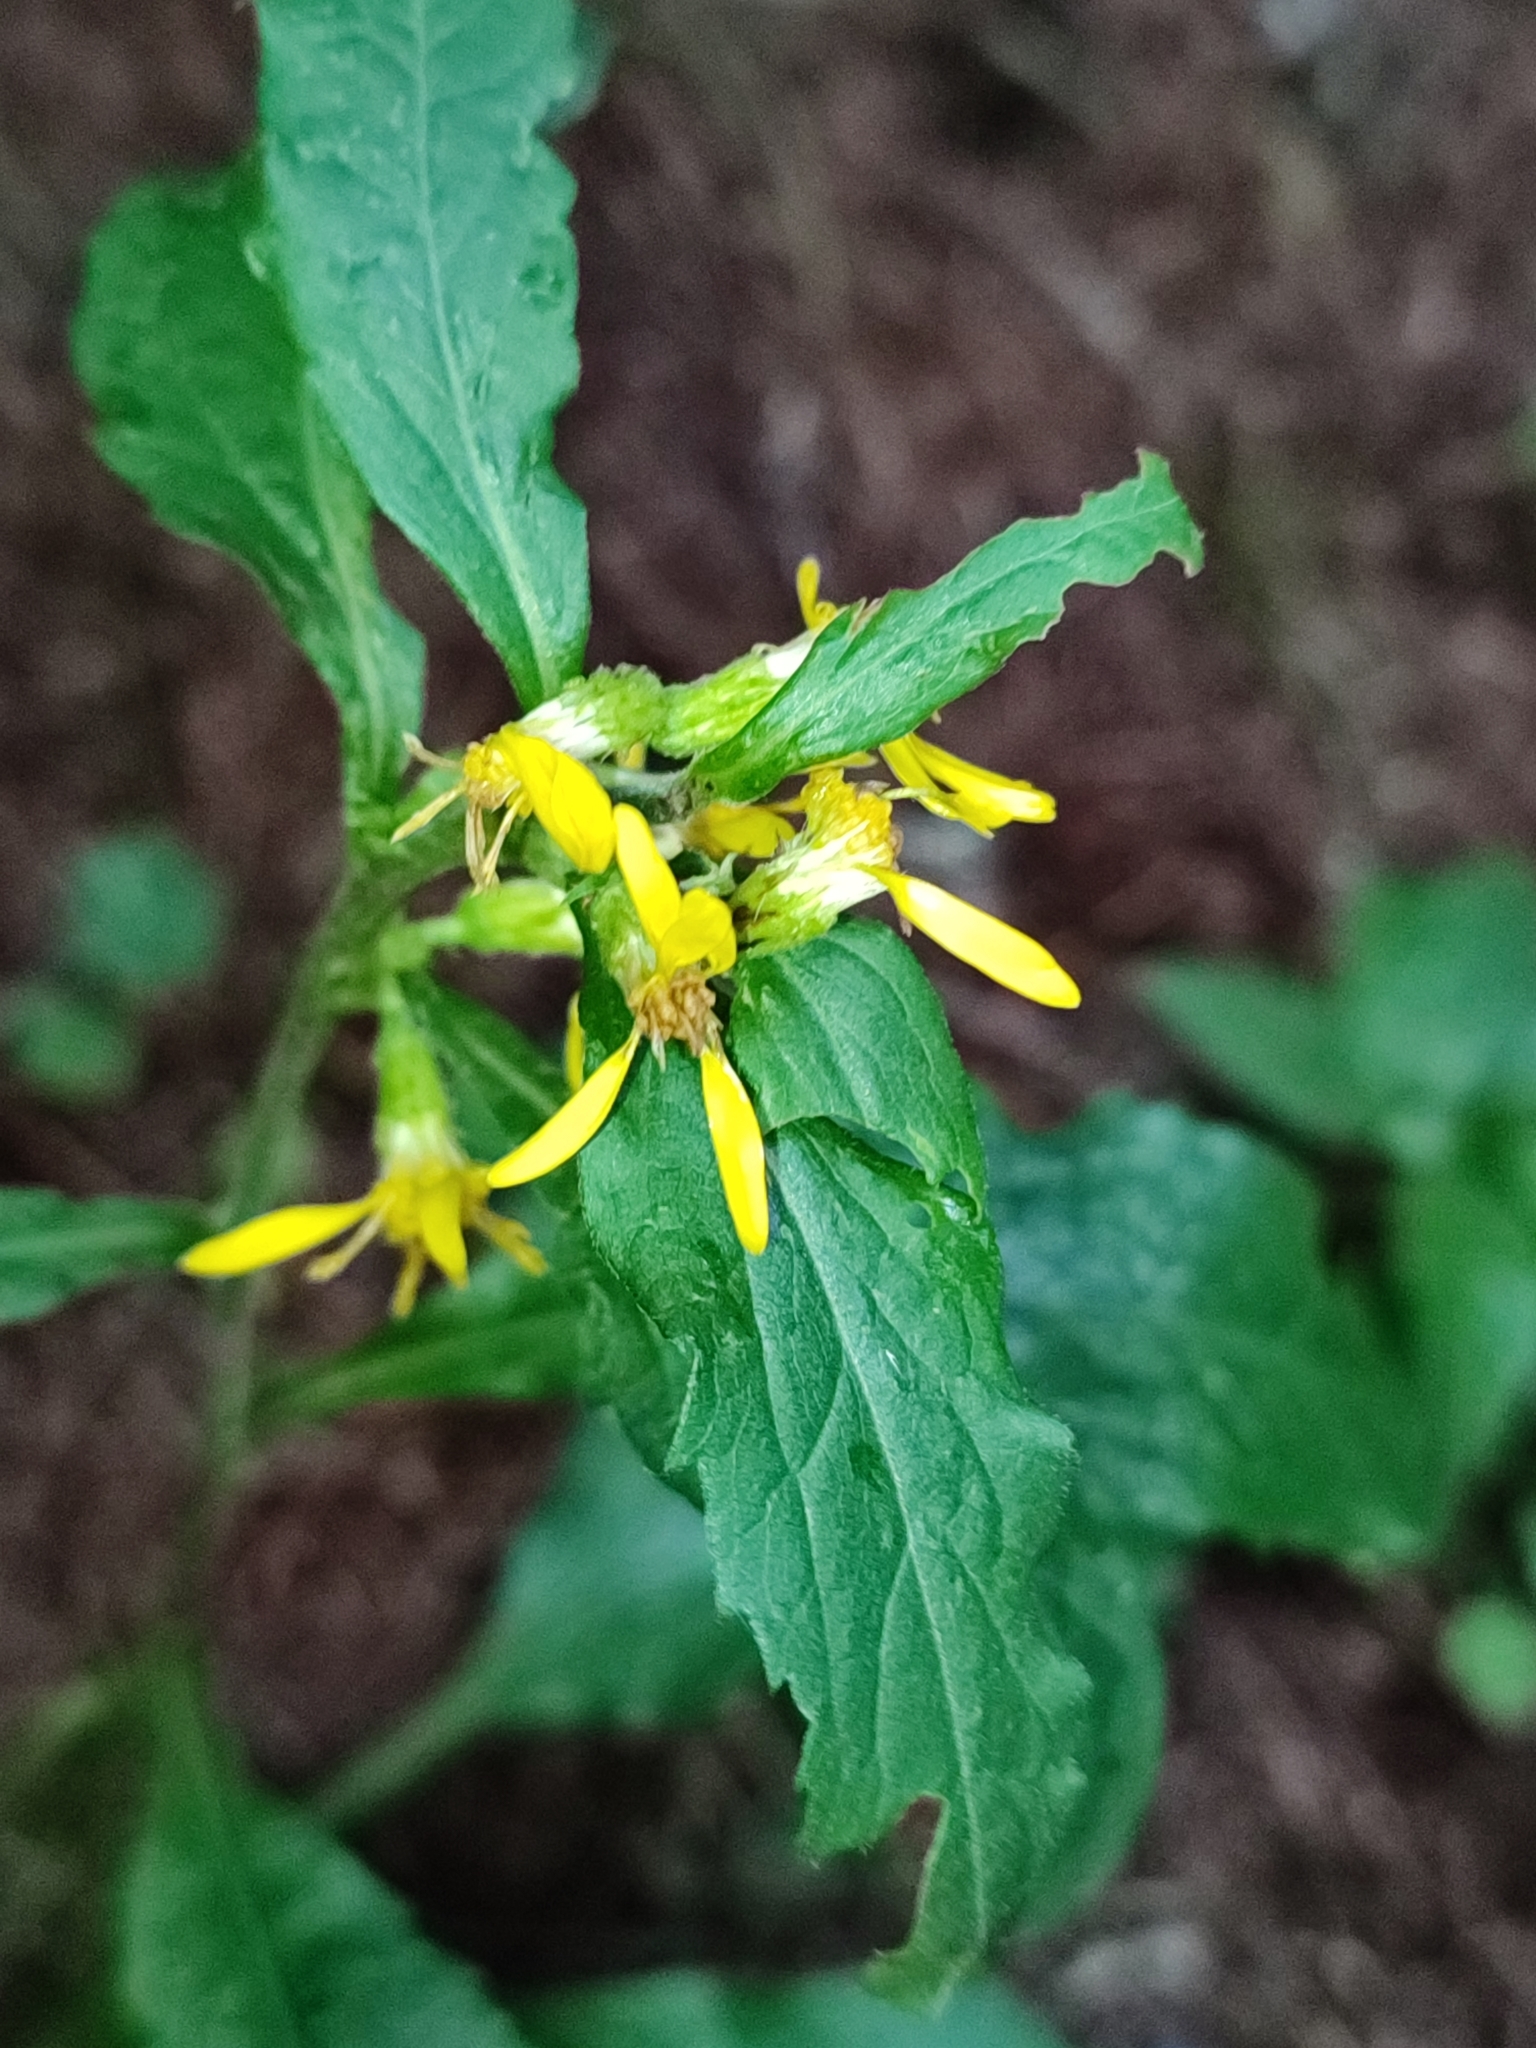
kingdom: Plantae
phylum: Tracheophyta
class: Magnoliopsida
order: Asterales
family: Asteraceae
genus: Solidago
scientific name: Solidago virgaurea
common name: Goldenrod
